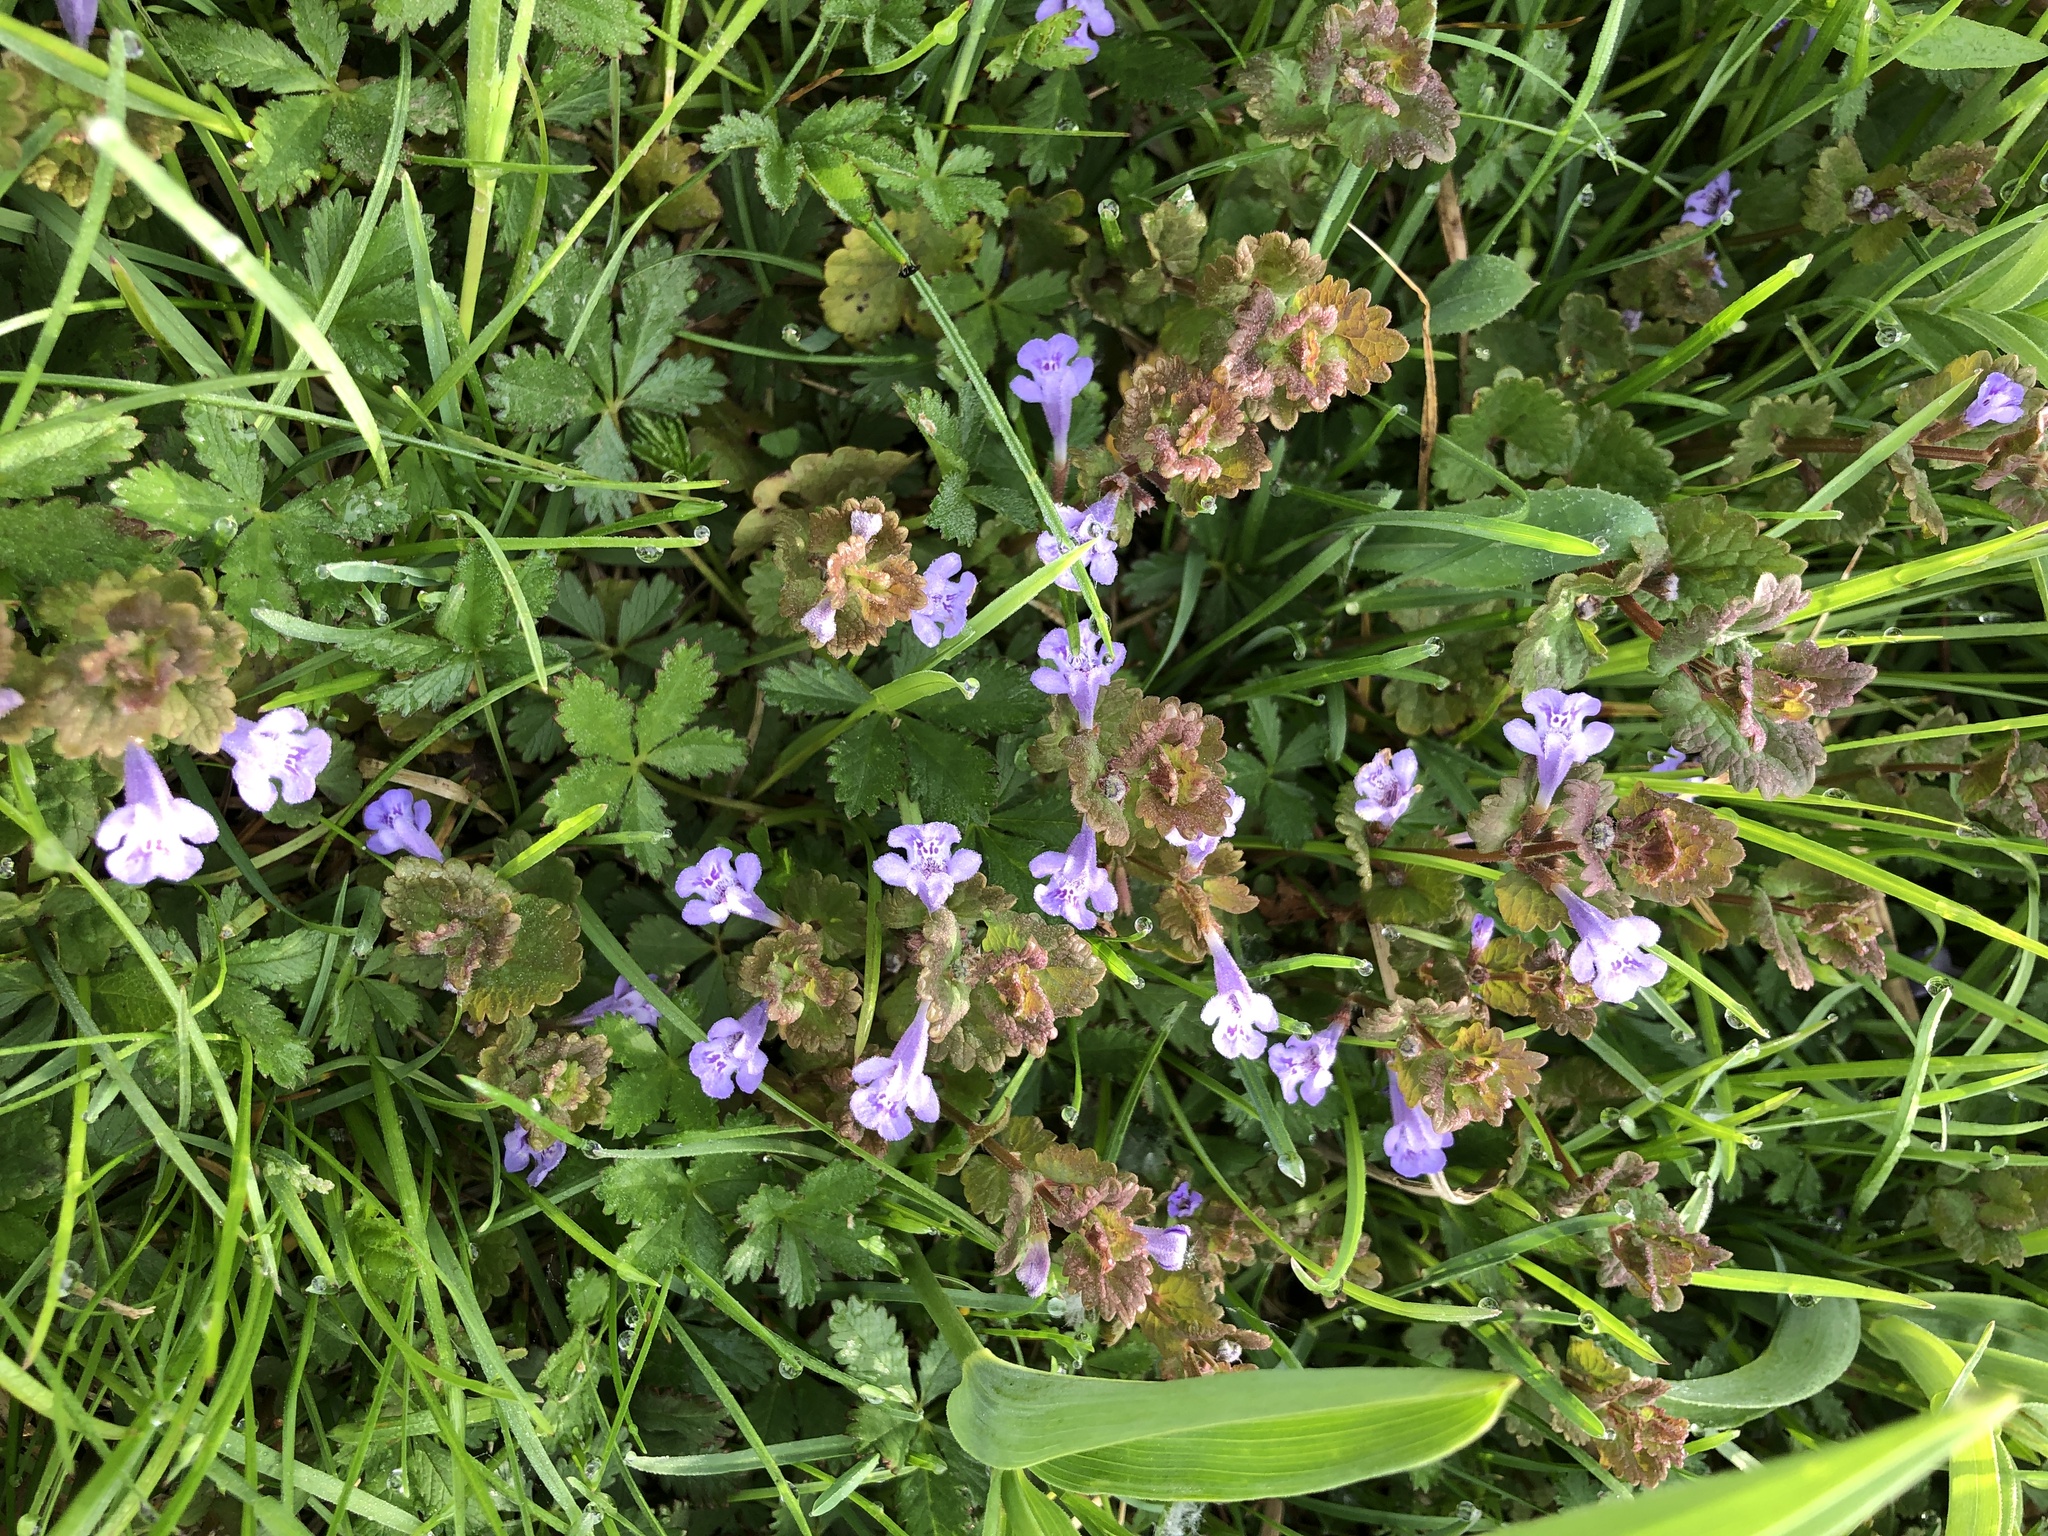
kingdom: Plantae
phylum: Tracheophyta
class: Magnoliopsida
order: Lamiales
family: Lamiaceae
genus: Glechoma
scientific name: Glechoma hederacea
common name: Ground ivy
